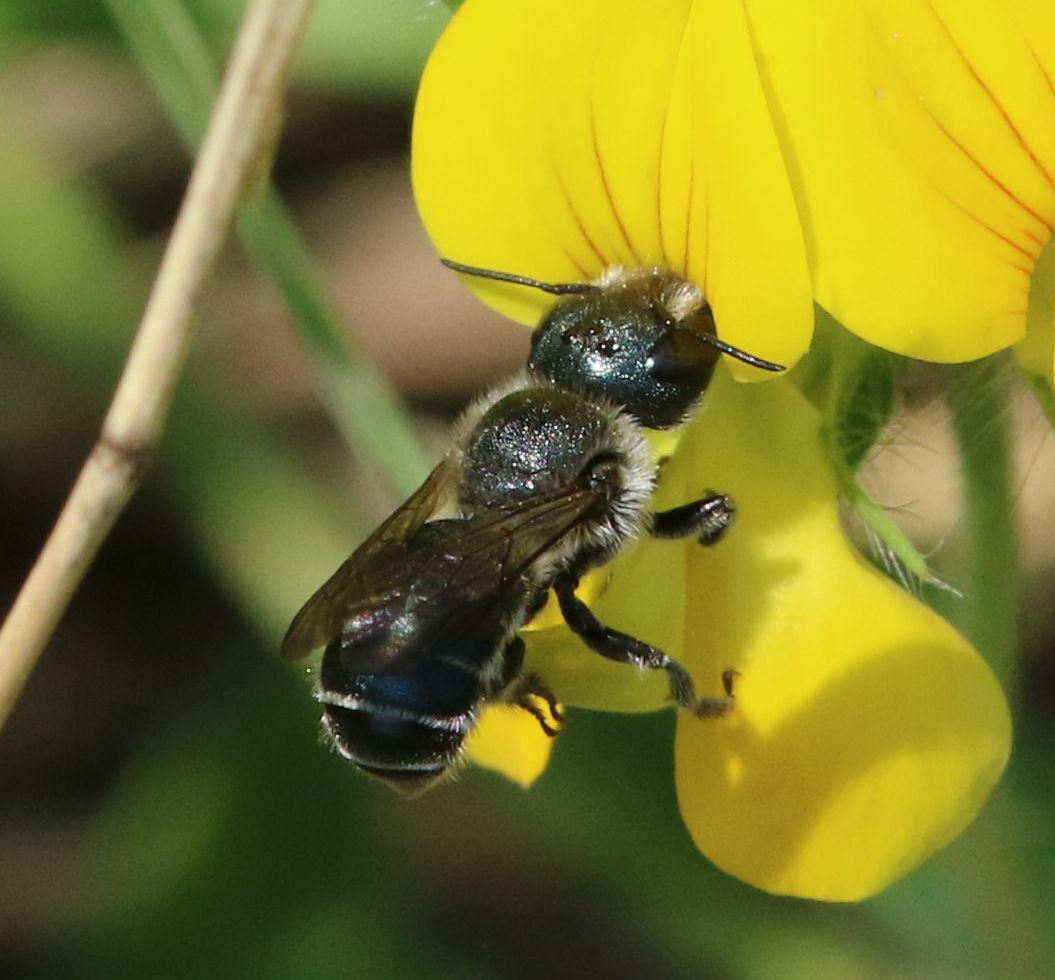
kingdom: Animalia
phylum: Arthropoda
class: Insecta
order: Hymenoptera
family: Megachilidae
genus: Osmia
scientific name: Osmia caerulescens
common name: Blue mason bee
